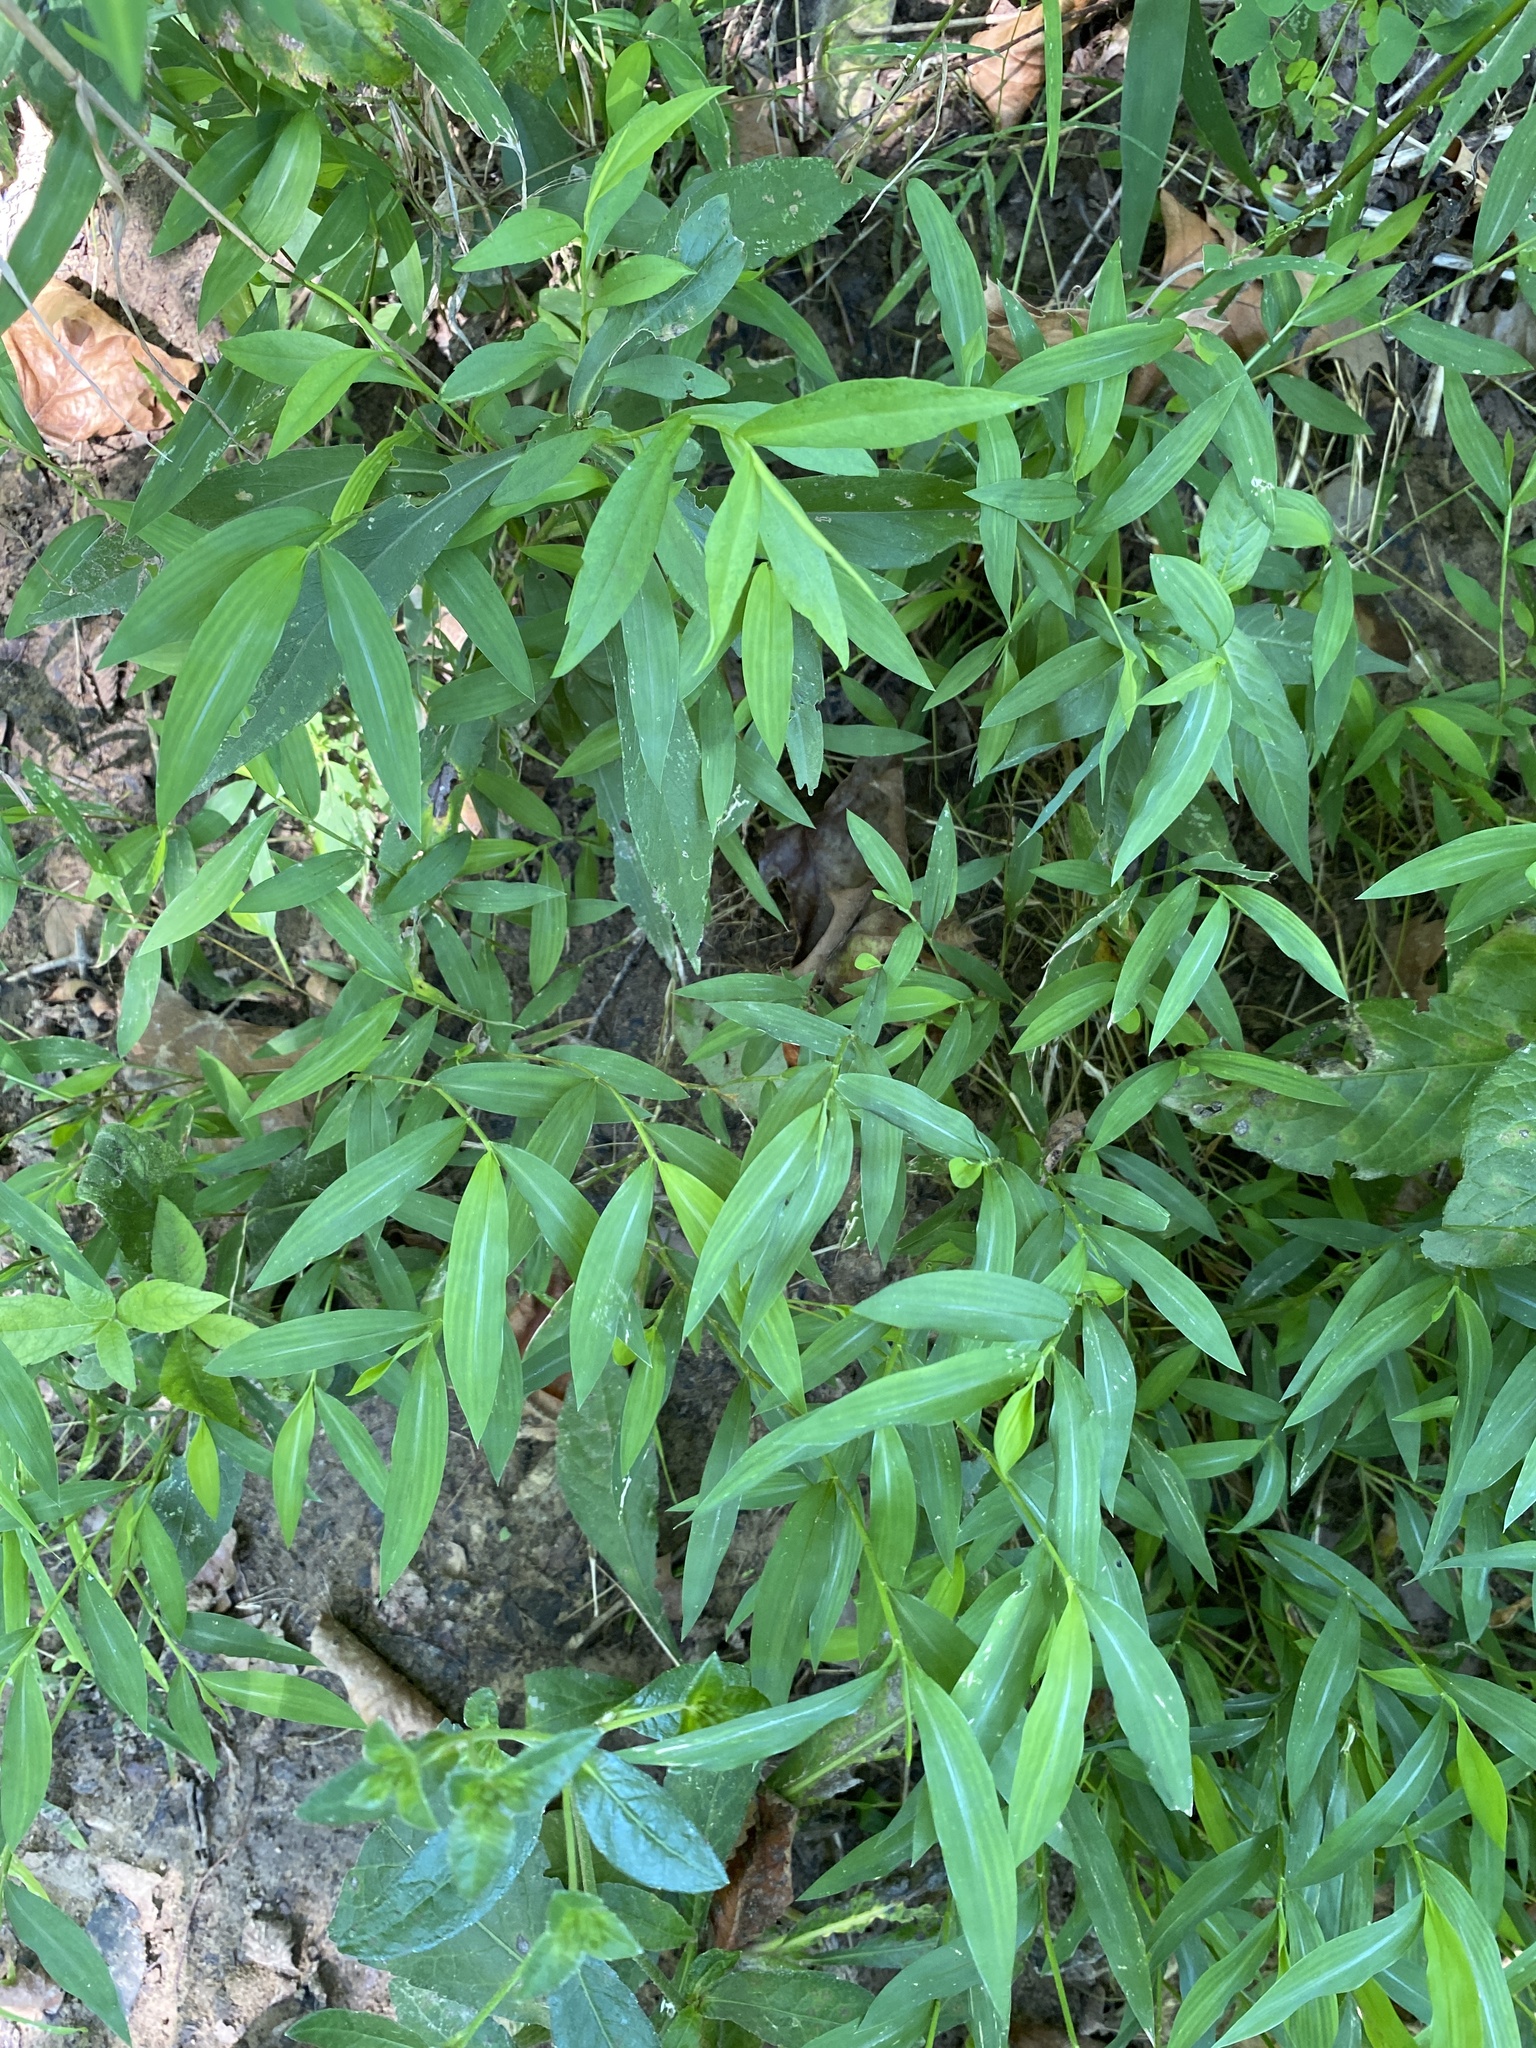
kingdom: Plantae
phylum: Tracheophyta
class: Liliopsida
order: Poales
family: Poaceae
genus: Microstegium
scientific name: Microstegium vimineum
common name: Japanese stiltgrass
